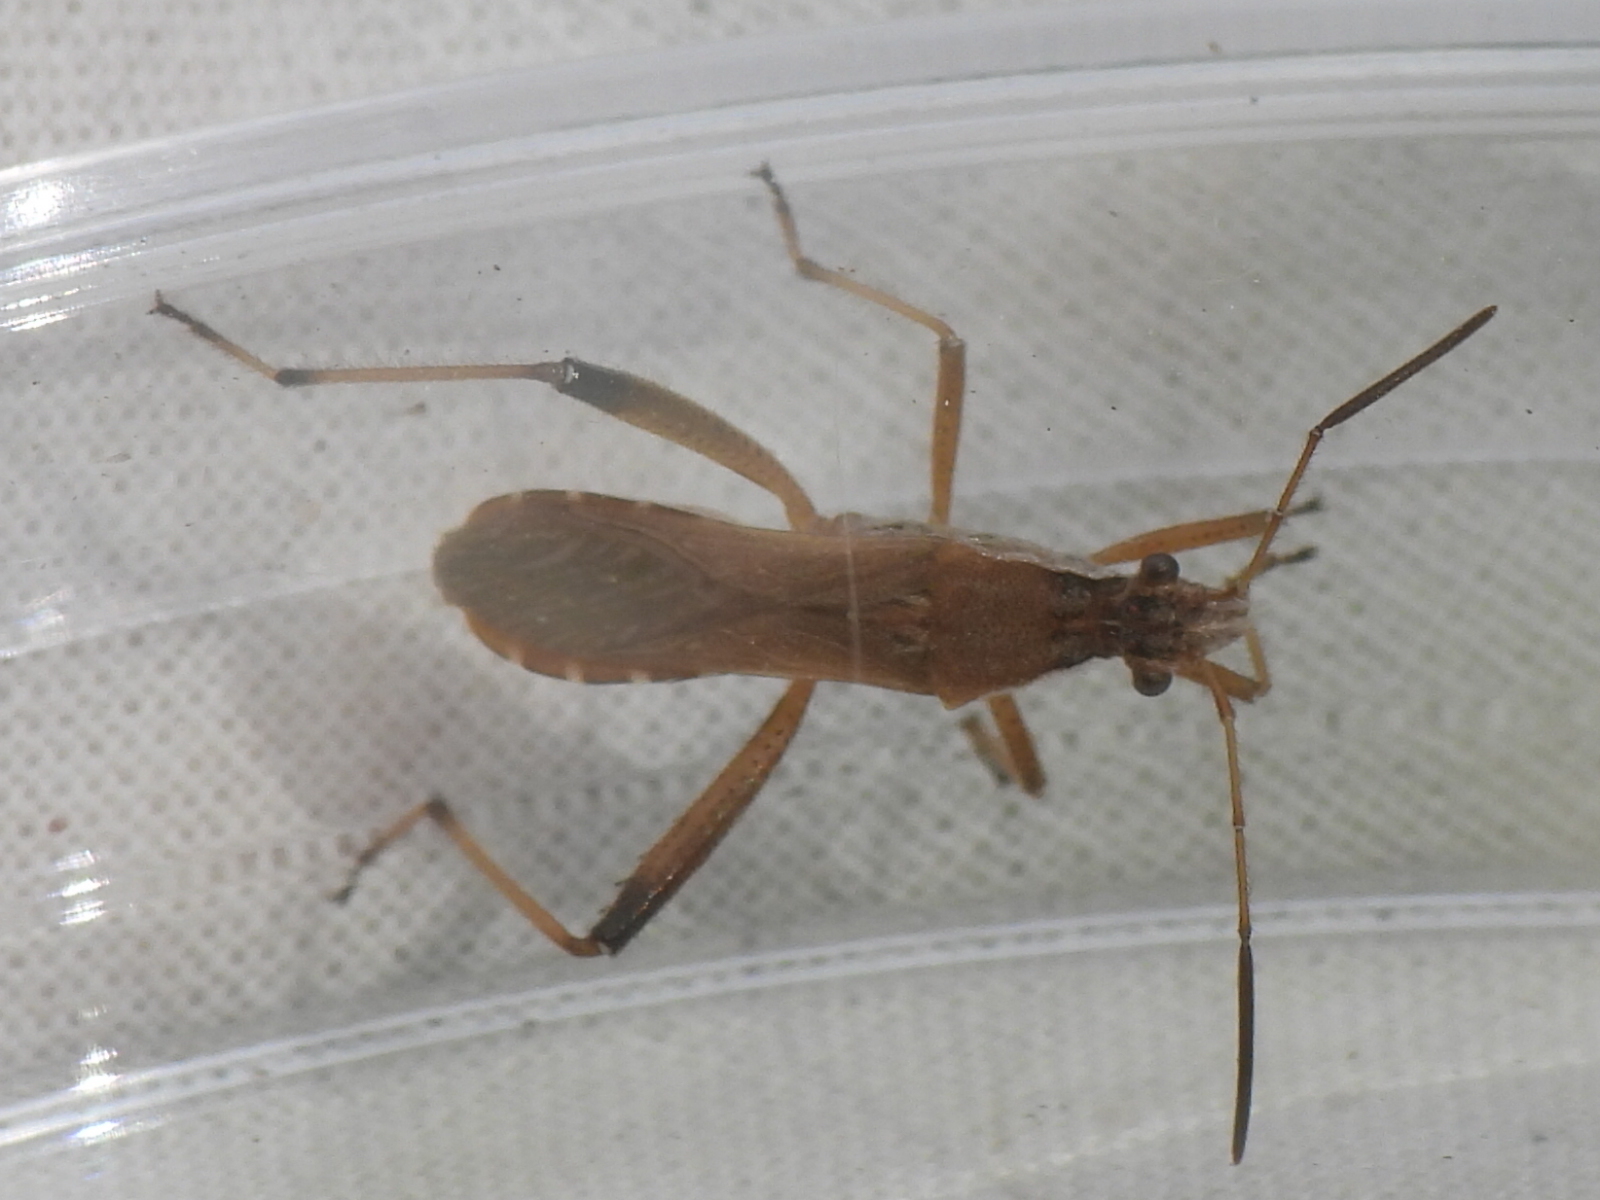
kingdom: Animalia
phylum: Arthropoda
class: Insecta
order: Hemiptera
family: Alydidae
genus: Alydus
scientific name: Alydus pilosulus
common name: Broad-headed bug
